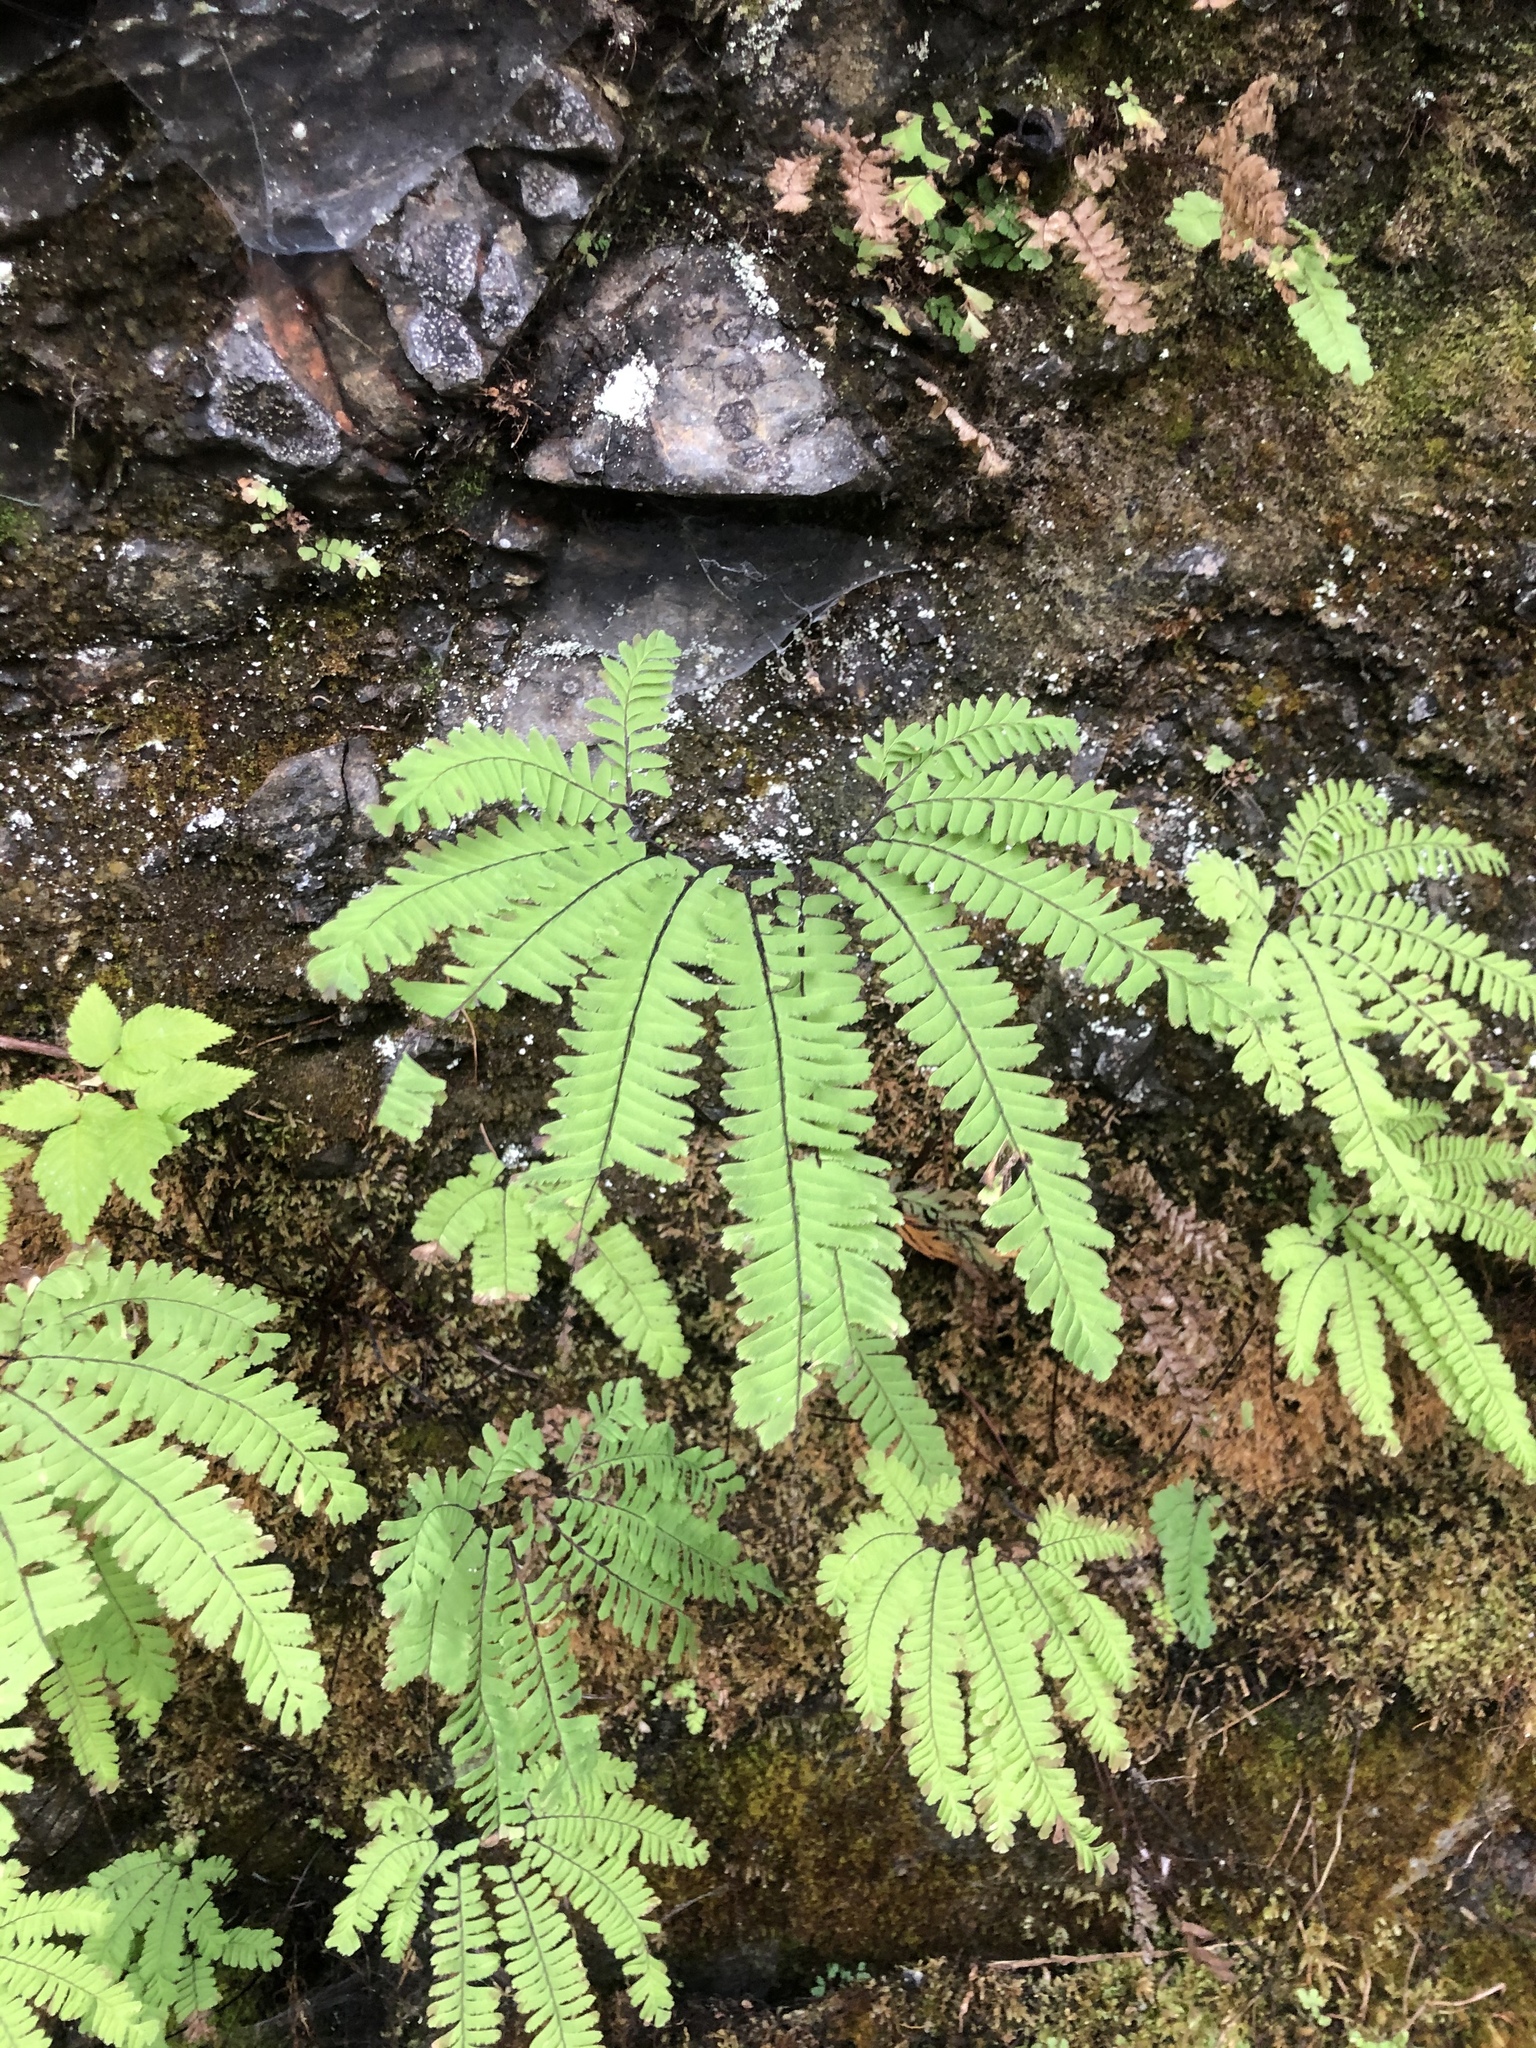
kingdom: Plantae
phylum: Tracheophyta
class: Polypodiopsida
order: Polypodiales
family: Pteridaceae
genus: Adiantum
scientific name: Adiantum aleuticum
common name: Aleutian maidenhair fern
